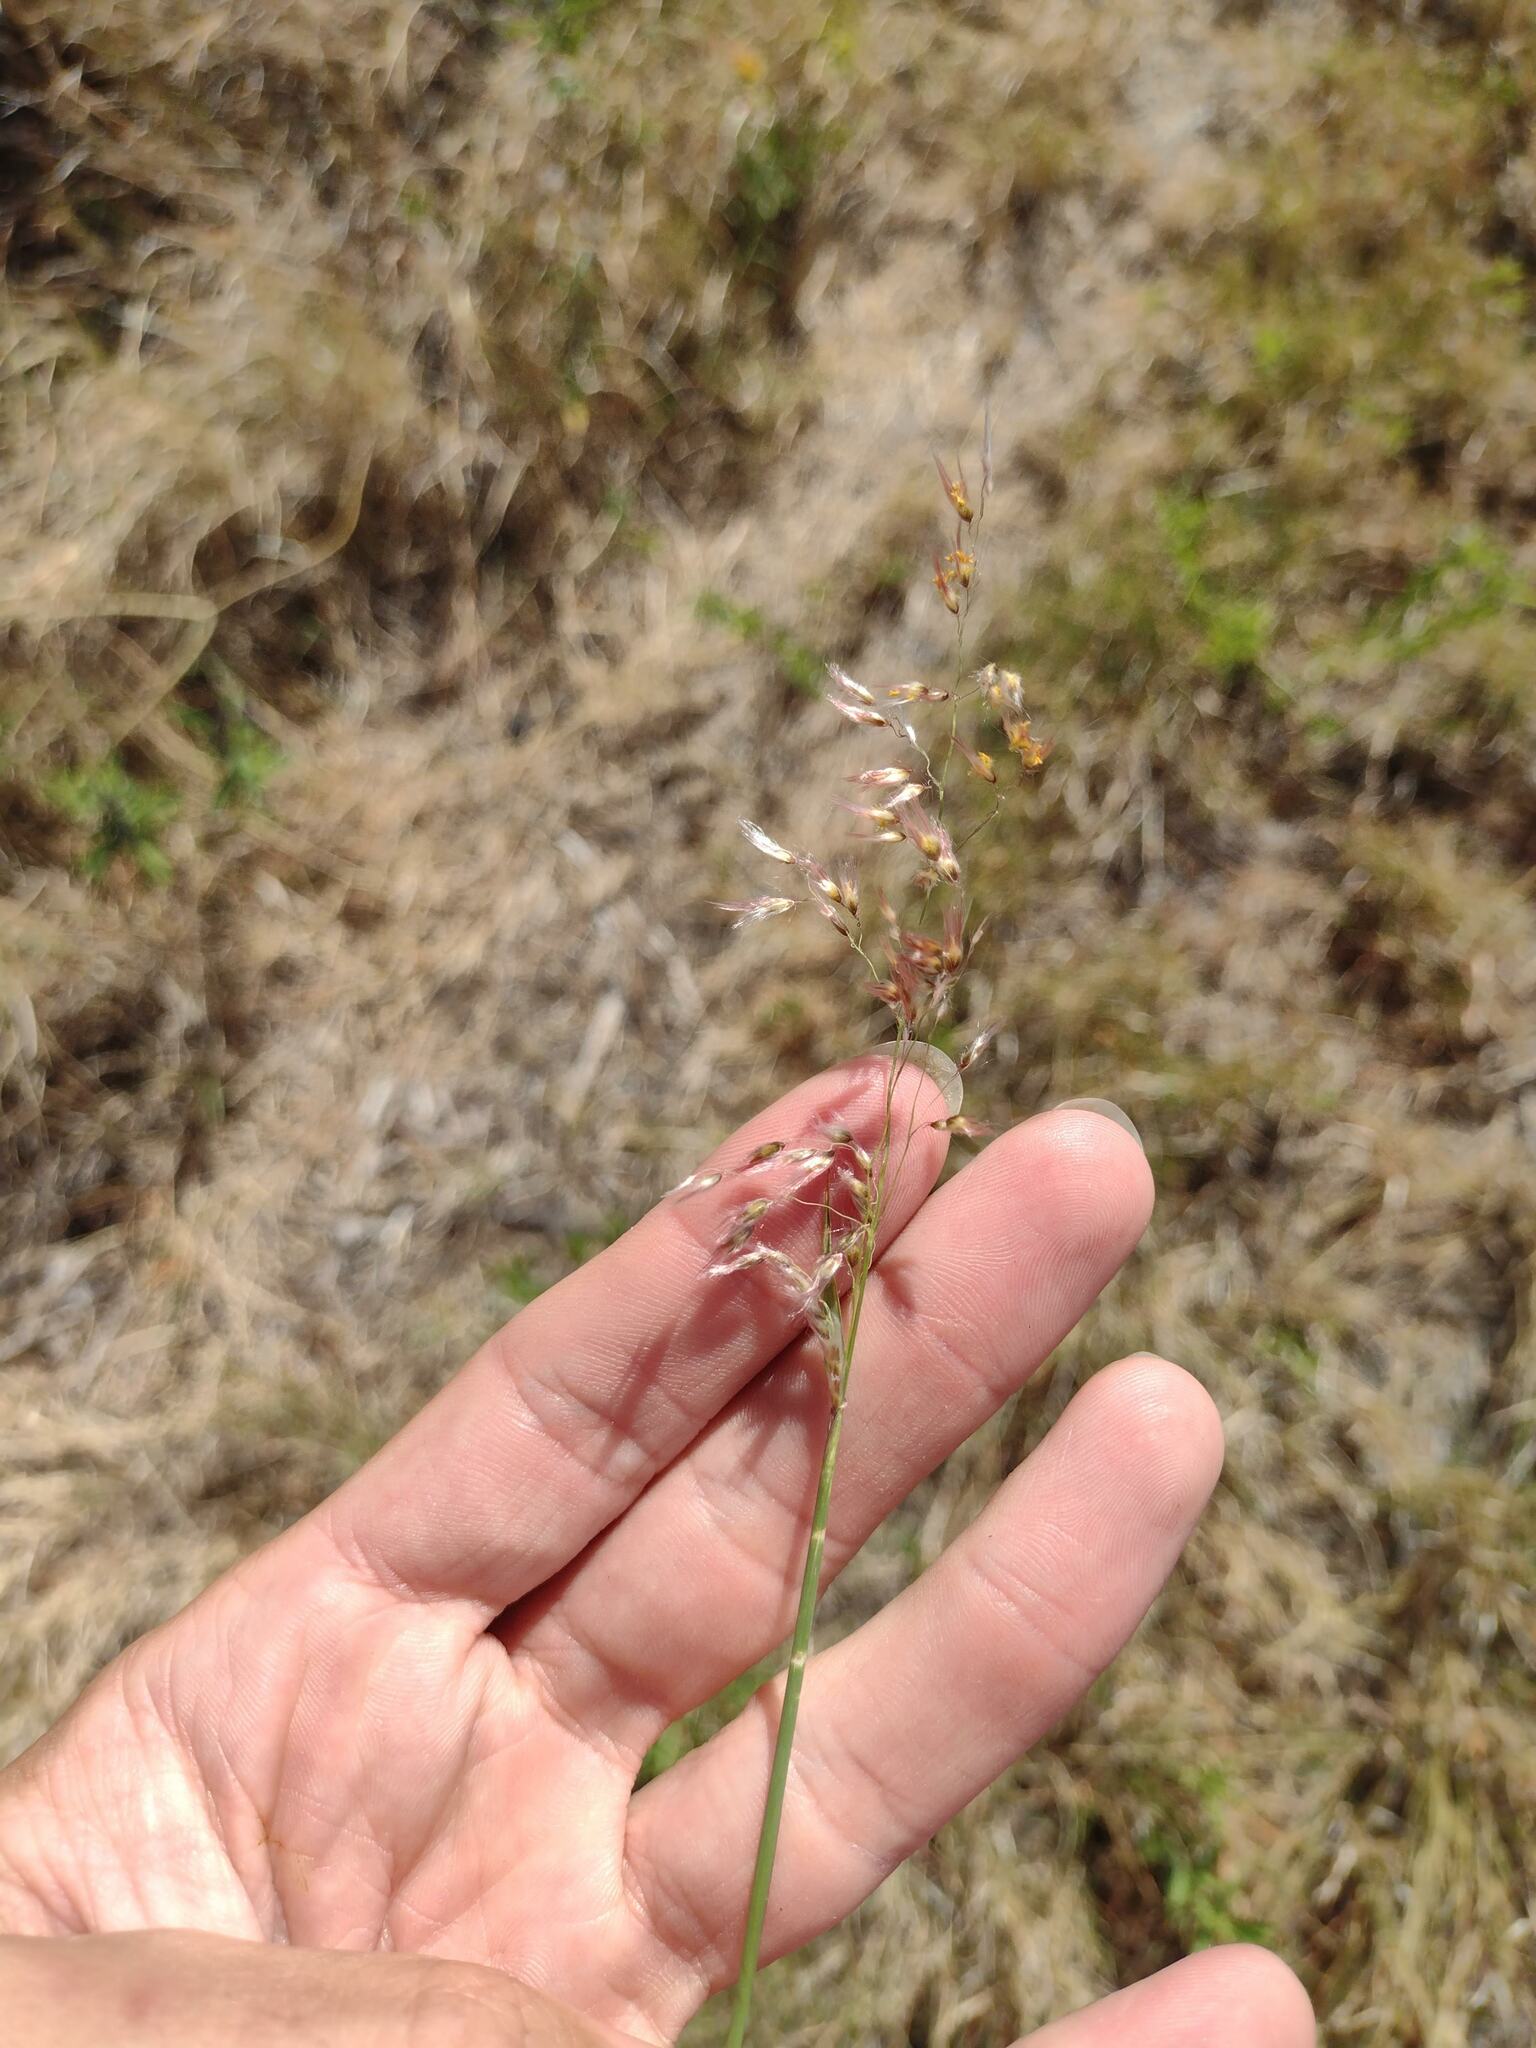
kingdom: Plantae
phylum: Tracheophyta
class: Liliopsida
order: Poales
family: Poaceae
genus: Melinis
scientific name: Melinis repens
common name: Rose natal grass
